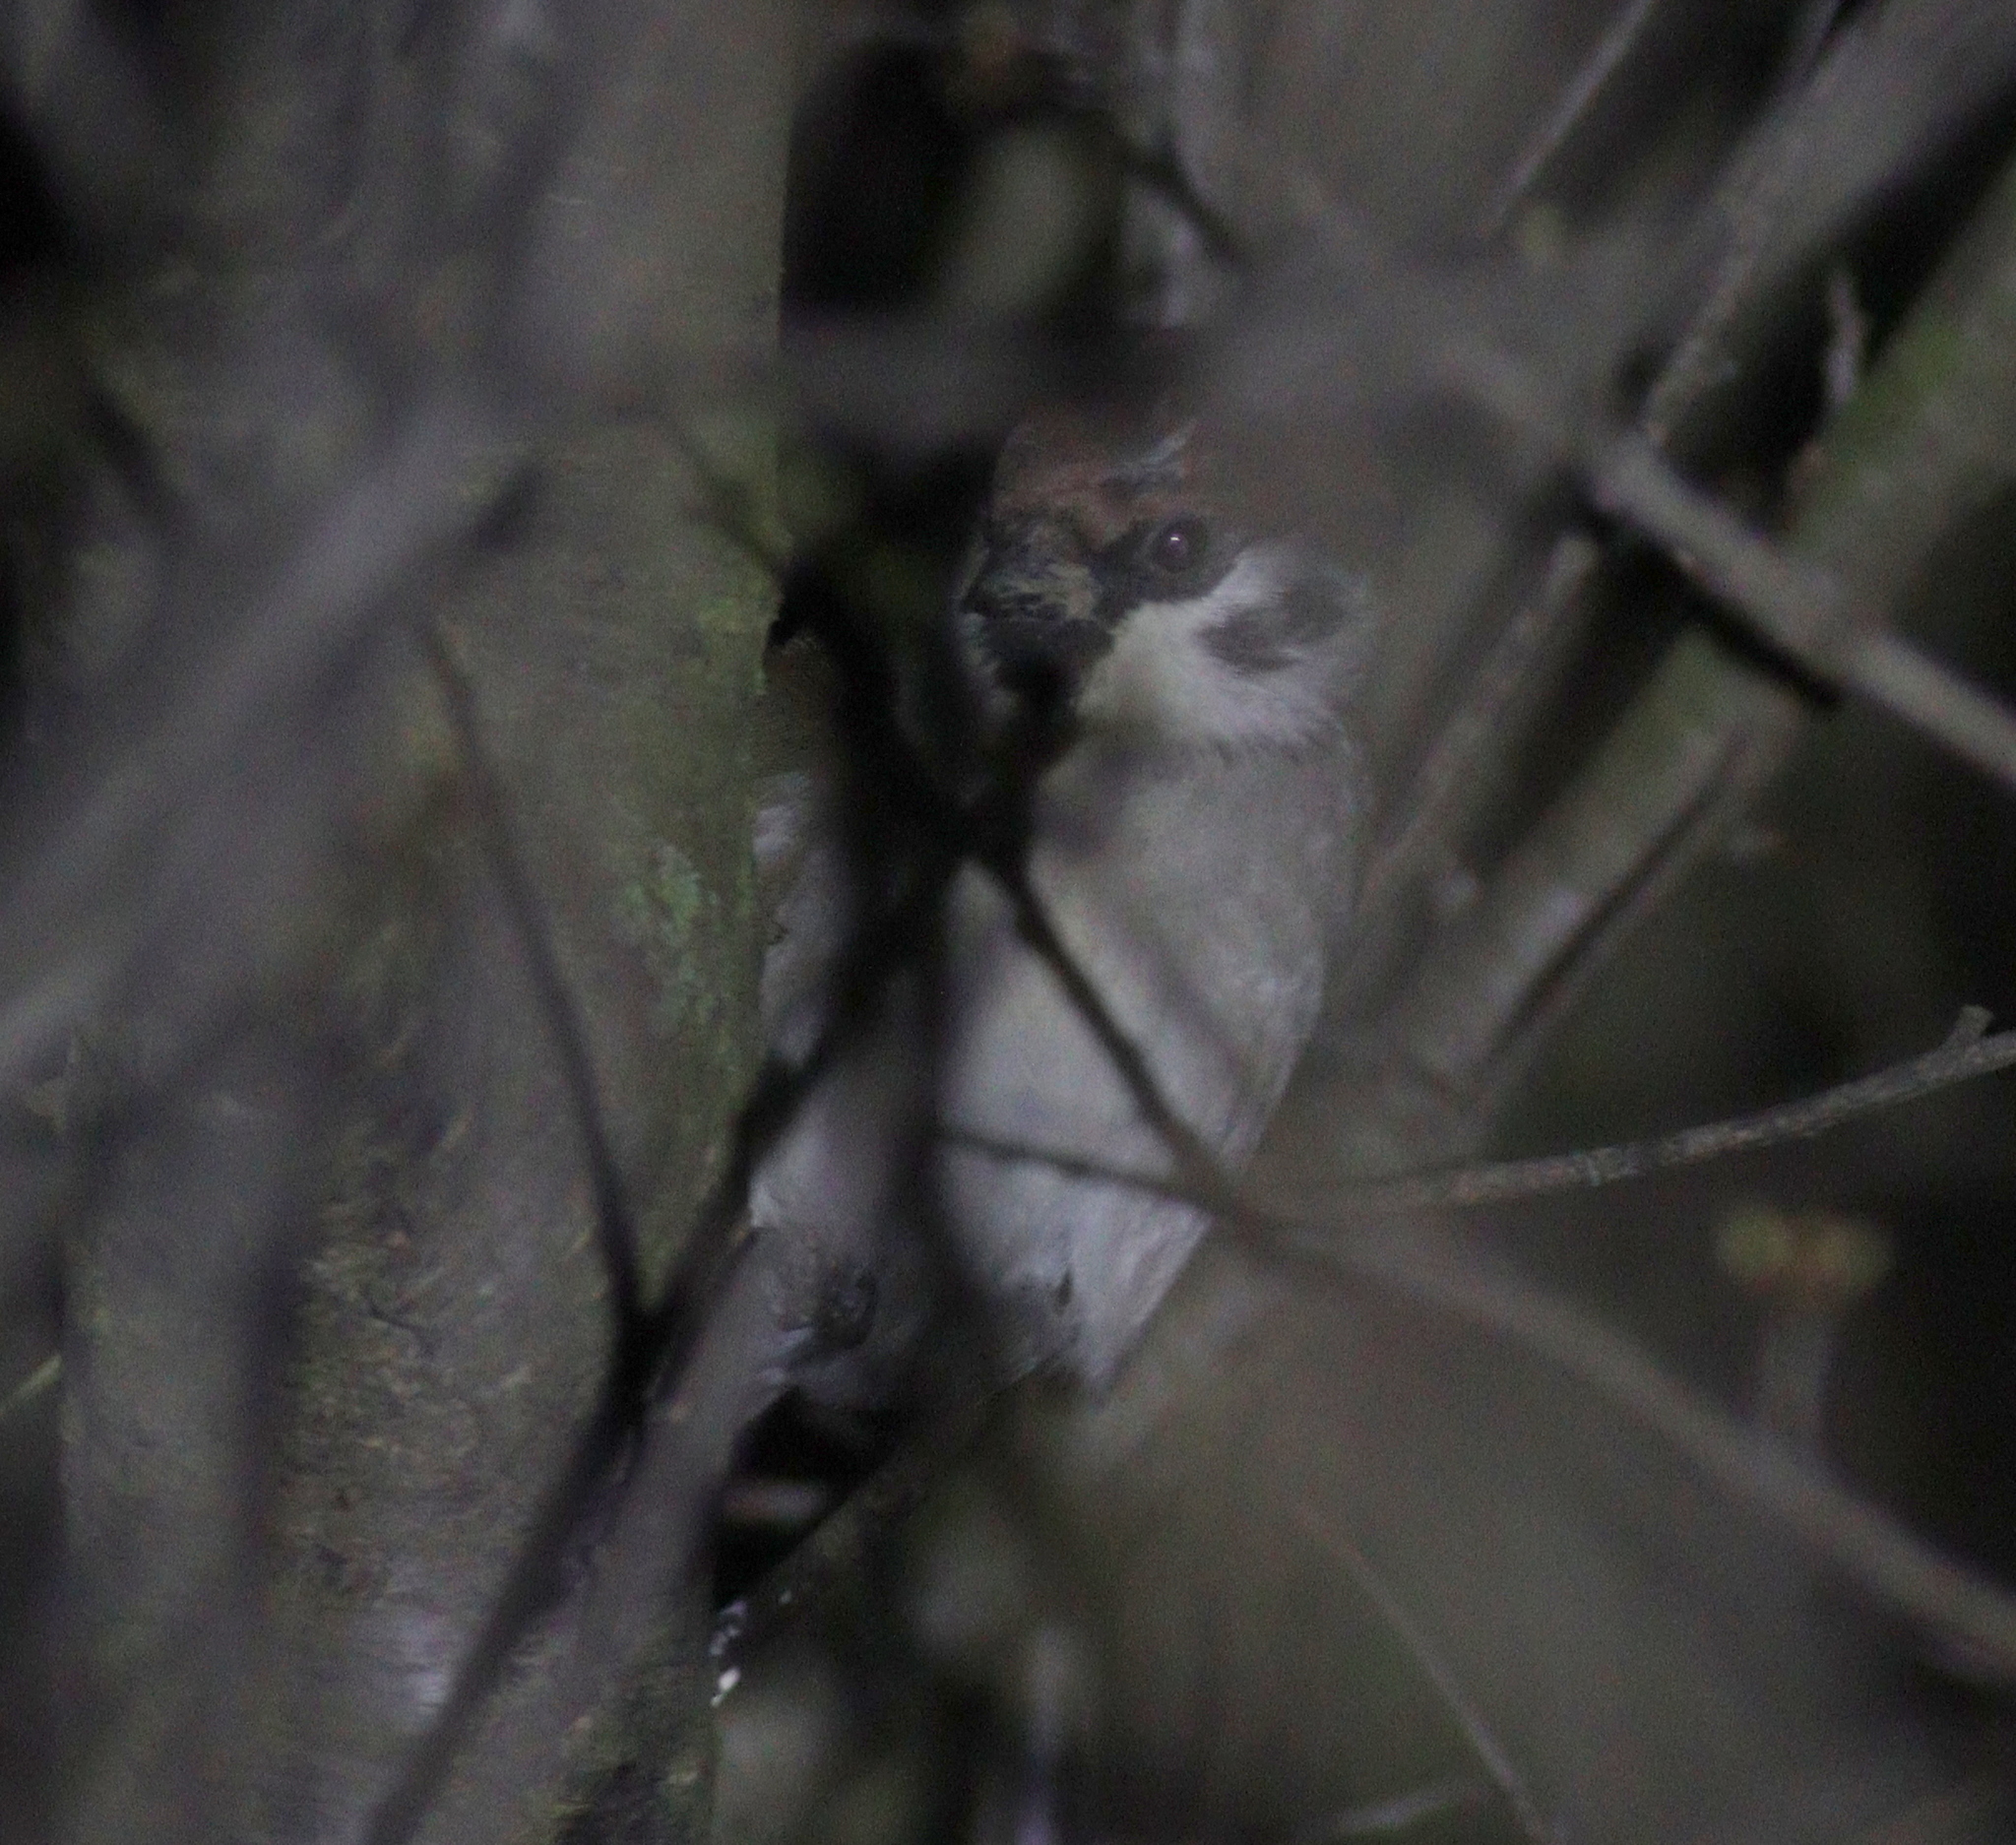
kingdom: Animalia
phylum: Chordata
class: Aves
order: Passeriformes
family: Passeridae
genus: Passer
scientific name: Passer montanus
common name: Eurasian tree sparrow
